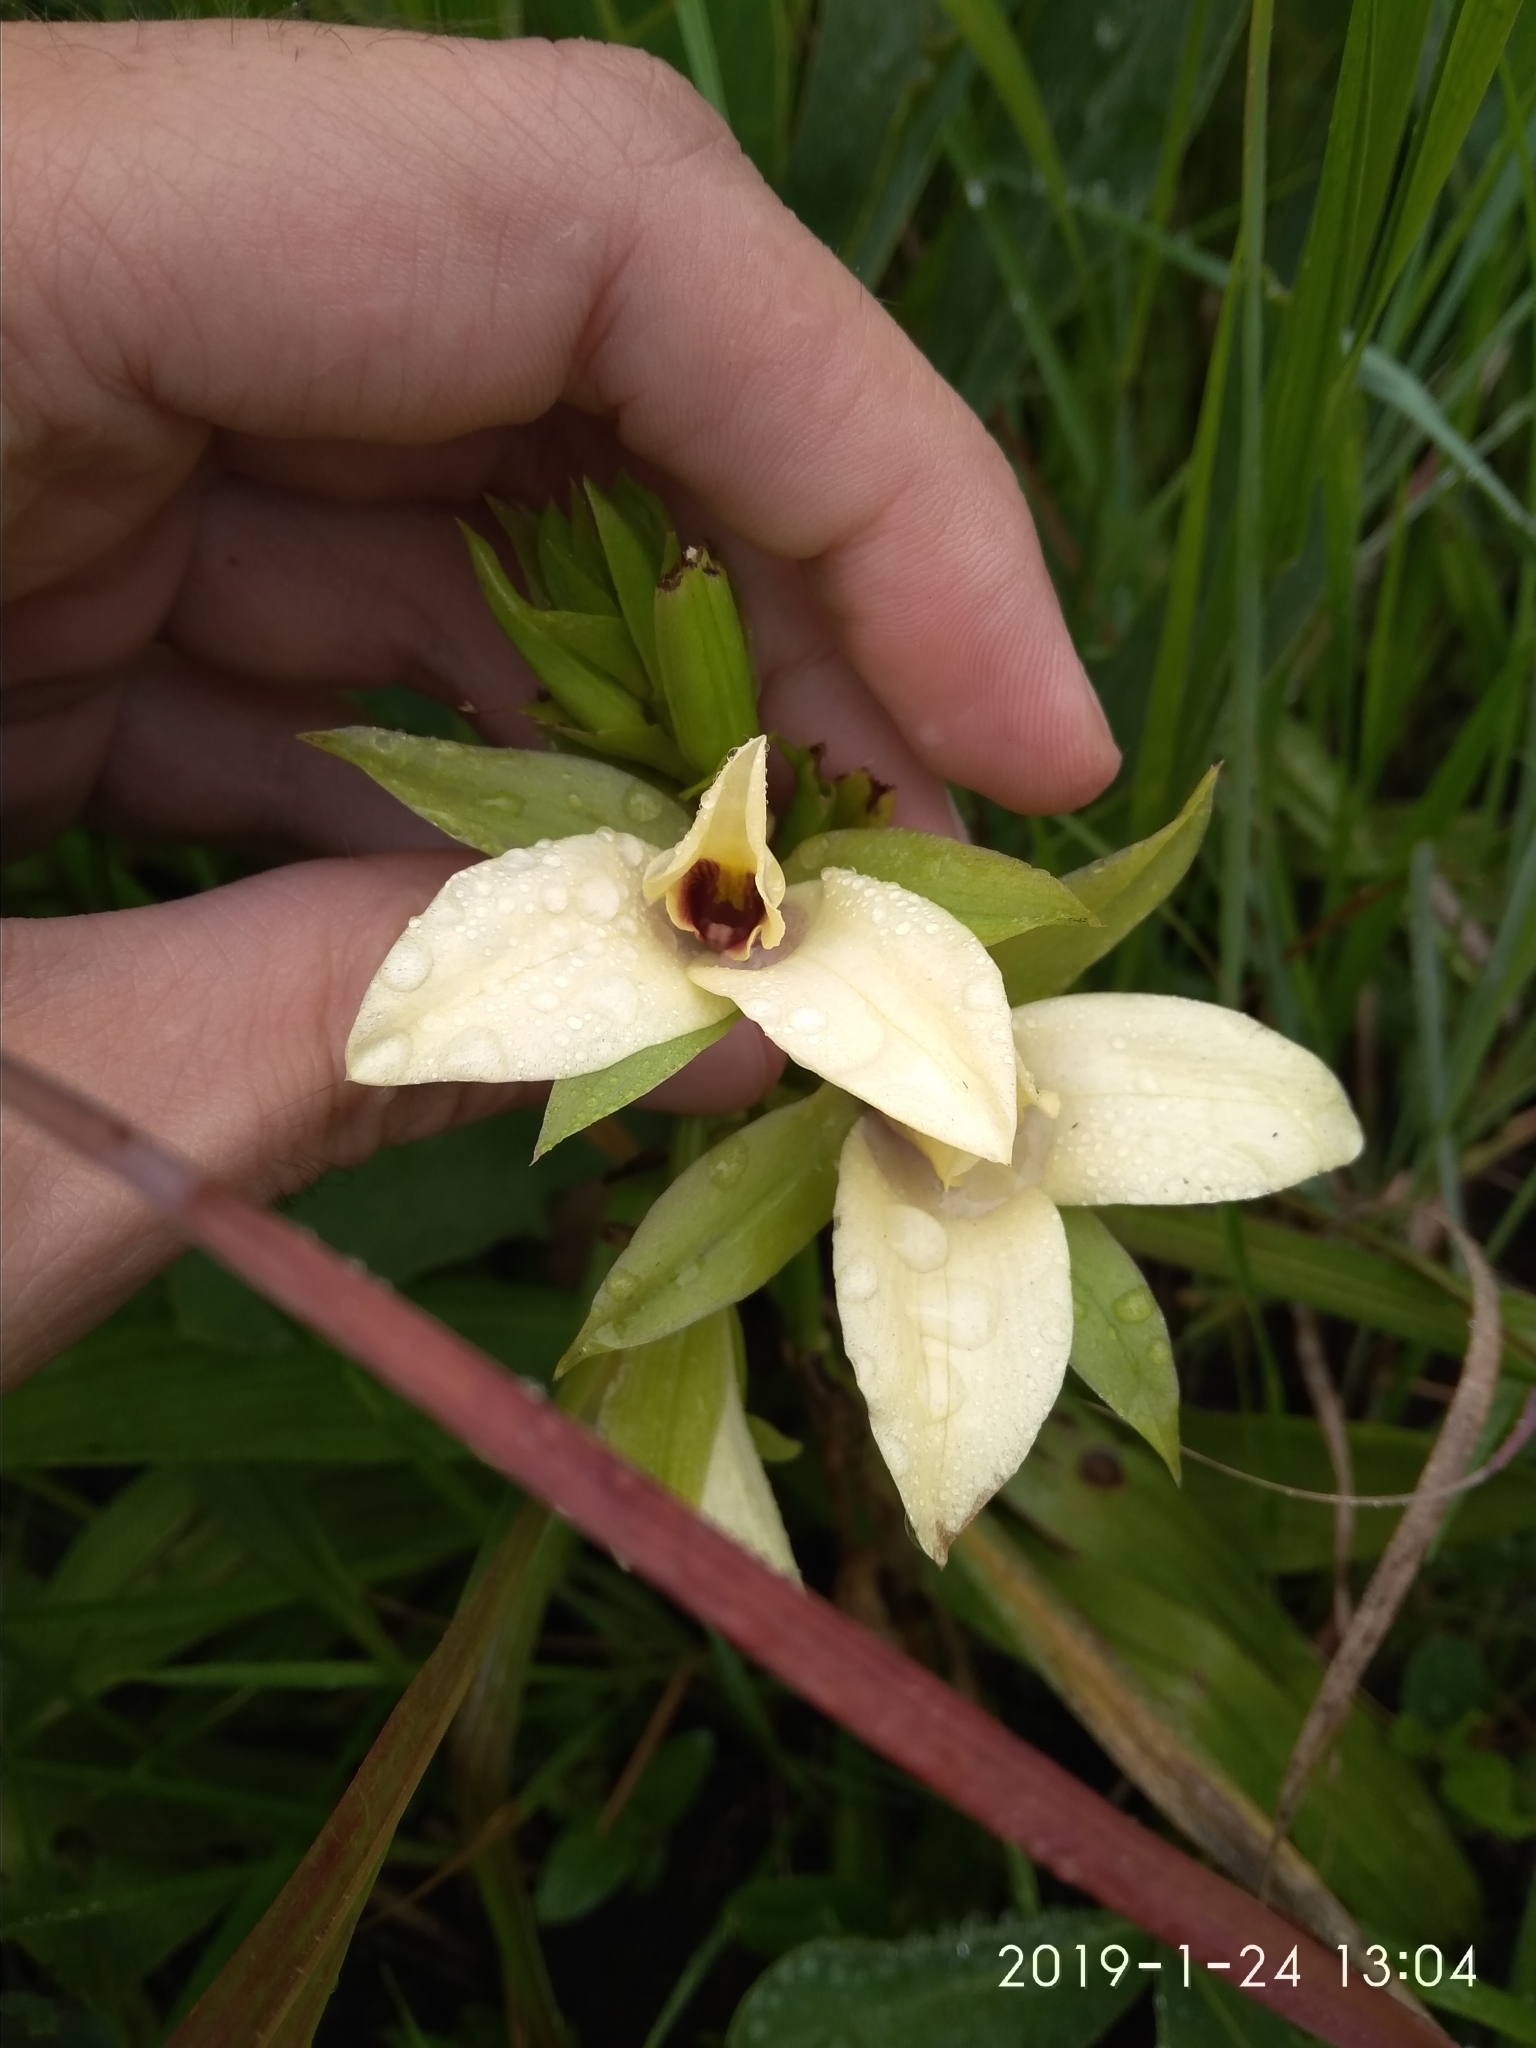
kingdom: Plantae
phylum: Tracheophyta
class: Liliopsida
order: Asparagales
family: Orchidaceae
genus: Eulophia
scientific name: Eulophia parvilabris
